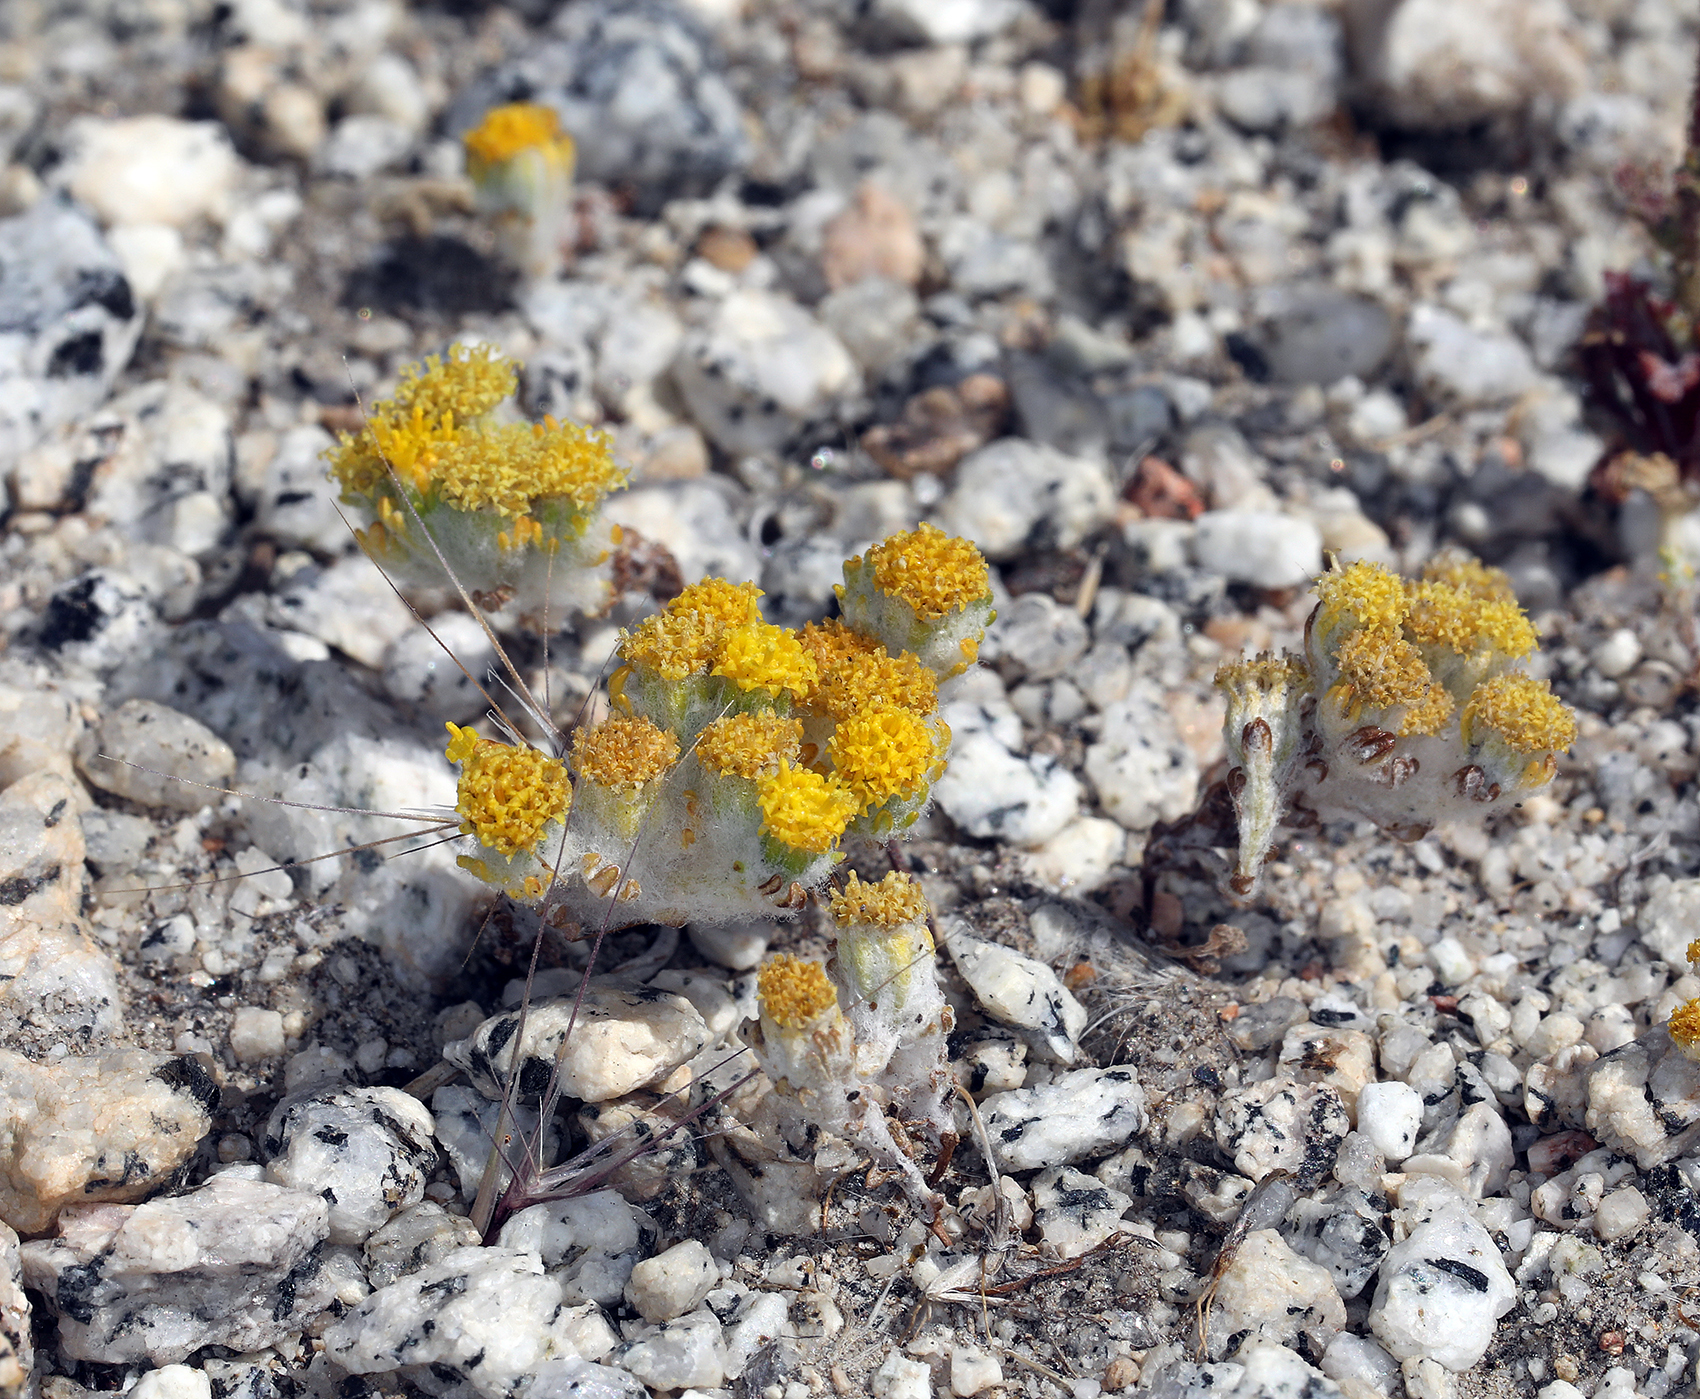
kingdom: Plantae
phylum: Tracheophyta
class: Magnoliopsida
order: Asterales
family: Asteraceae
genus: Eriophyllum
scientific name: Eriophyllum pringlei
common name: Pringle's woolly-sunflower
